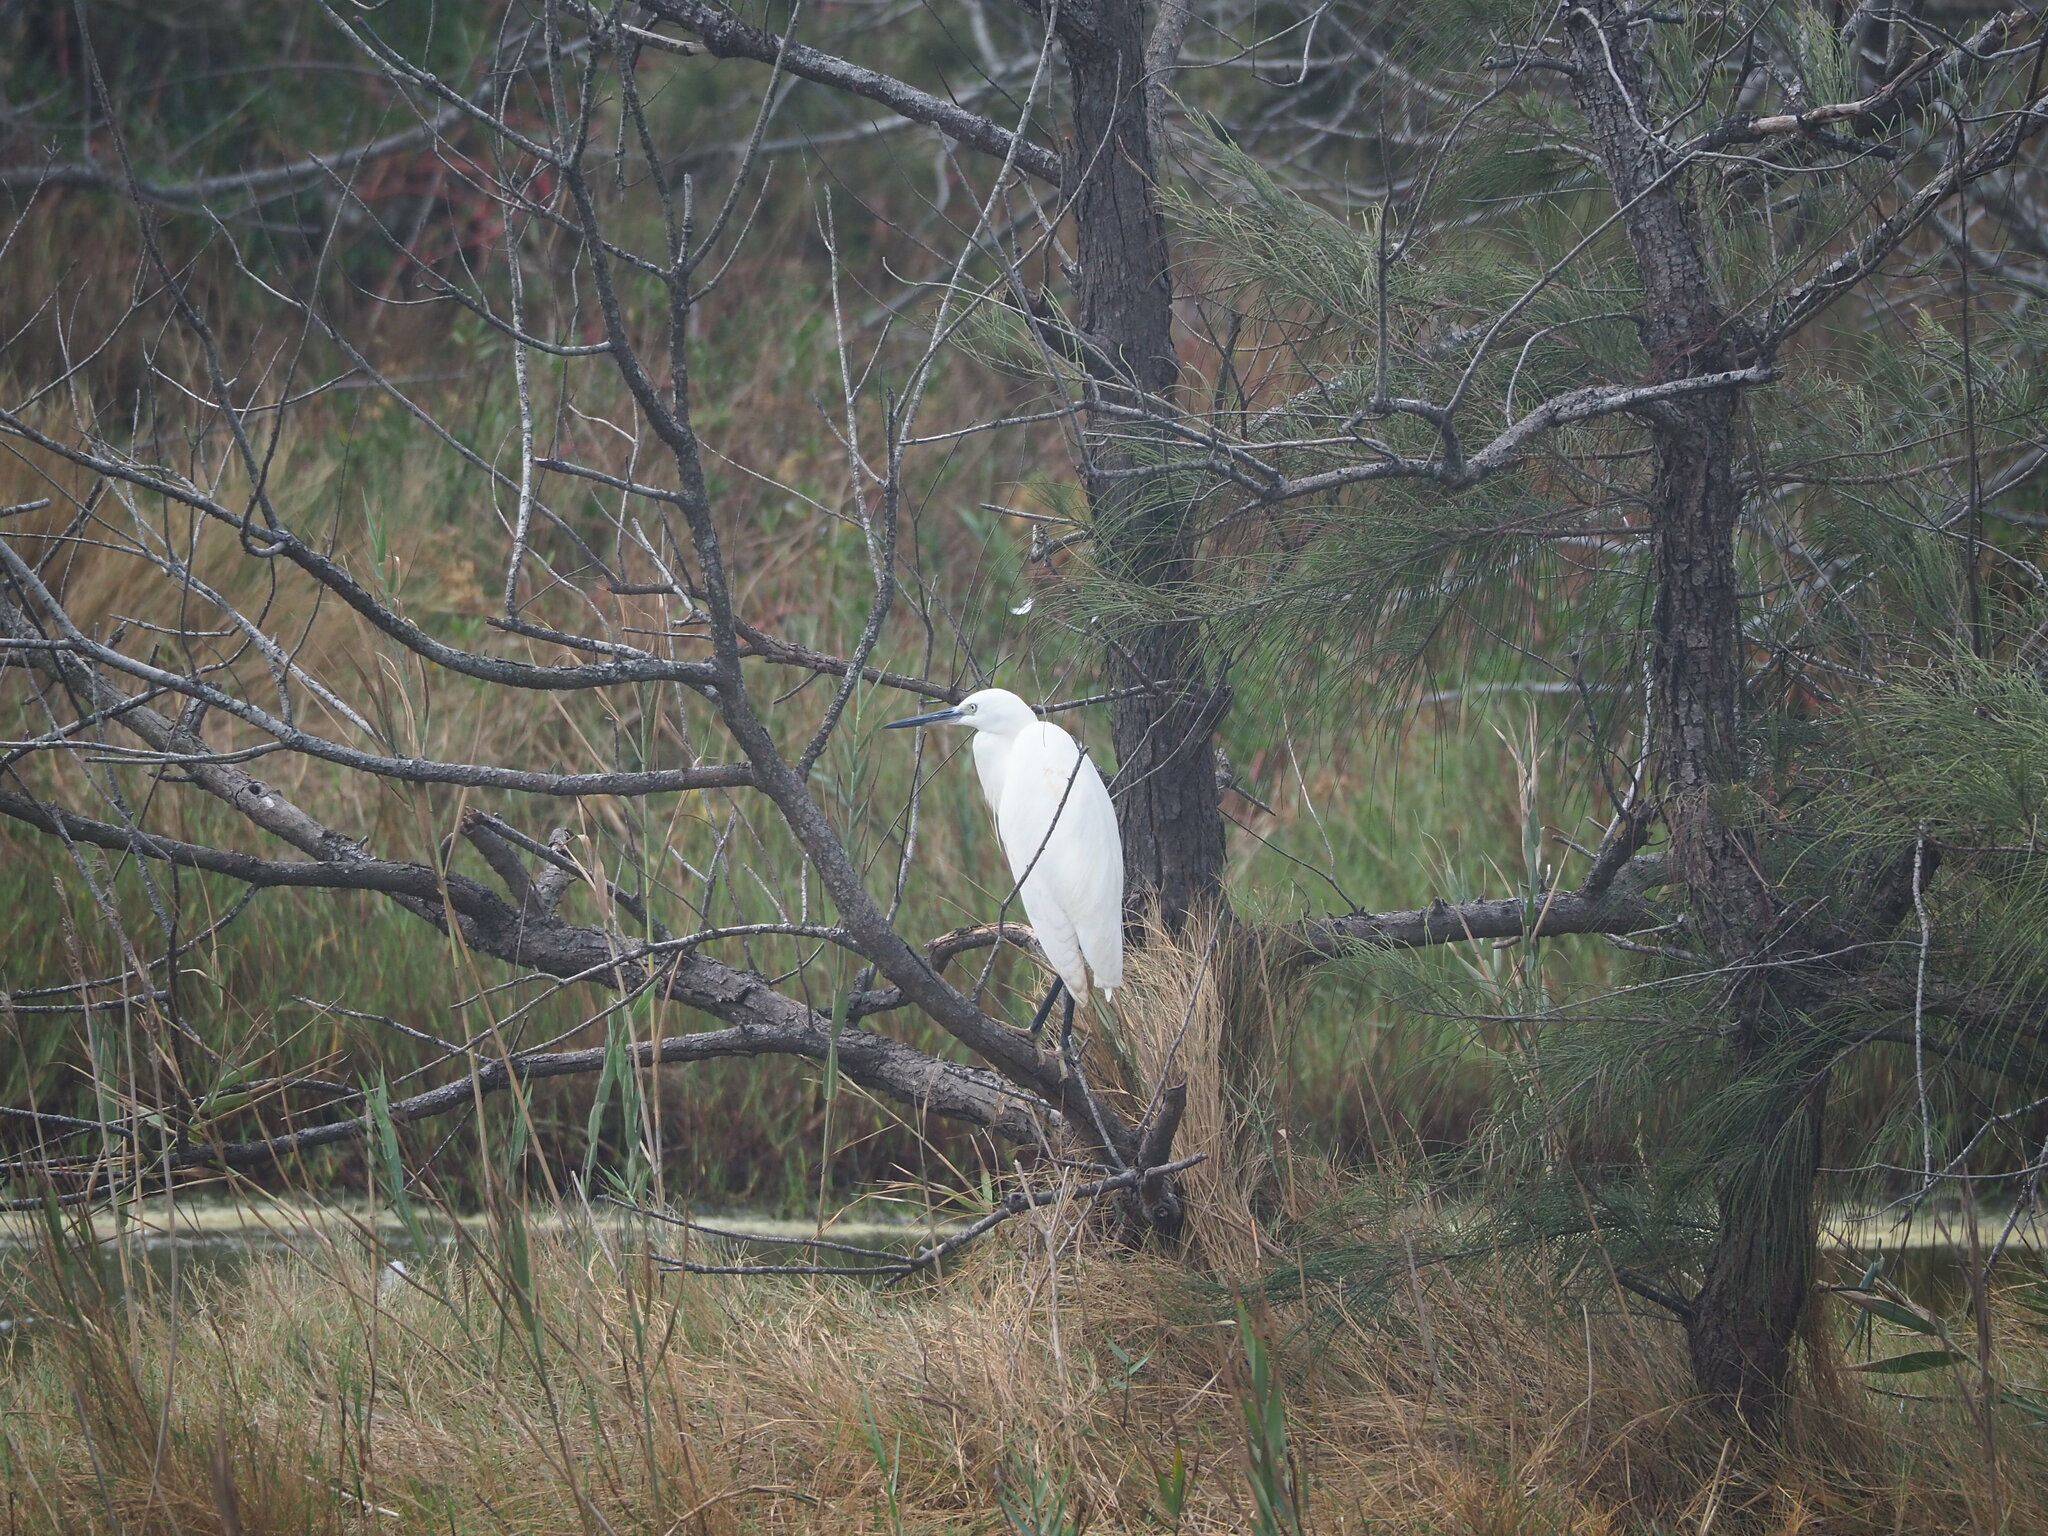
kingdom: Animalia
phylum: Chordata
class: Aves
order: Pelecaniformes
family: Ardeidae
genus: Egretta
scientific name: Egretta garzetta
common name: Little egret
